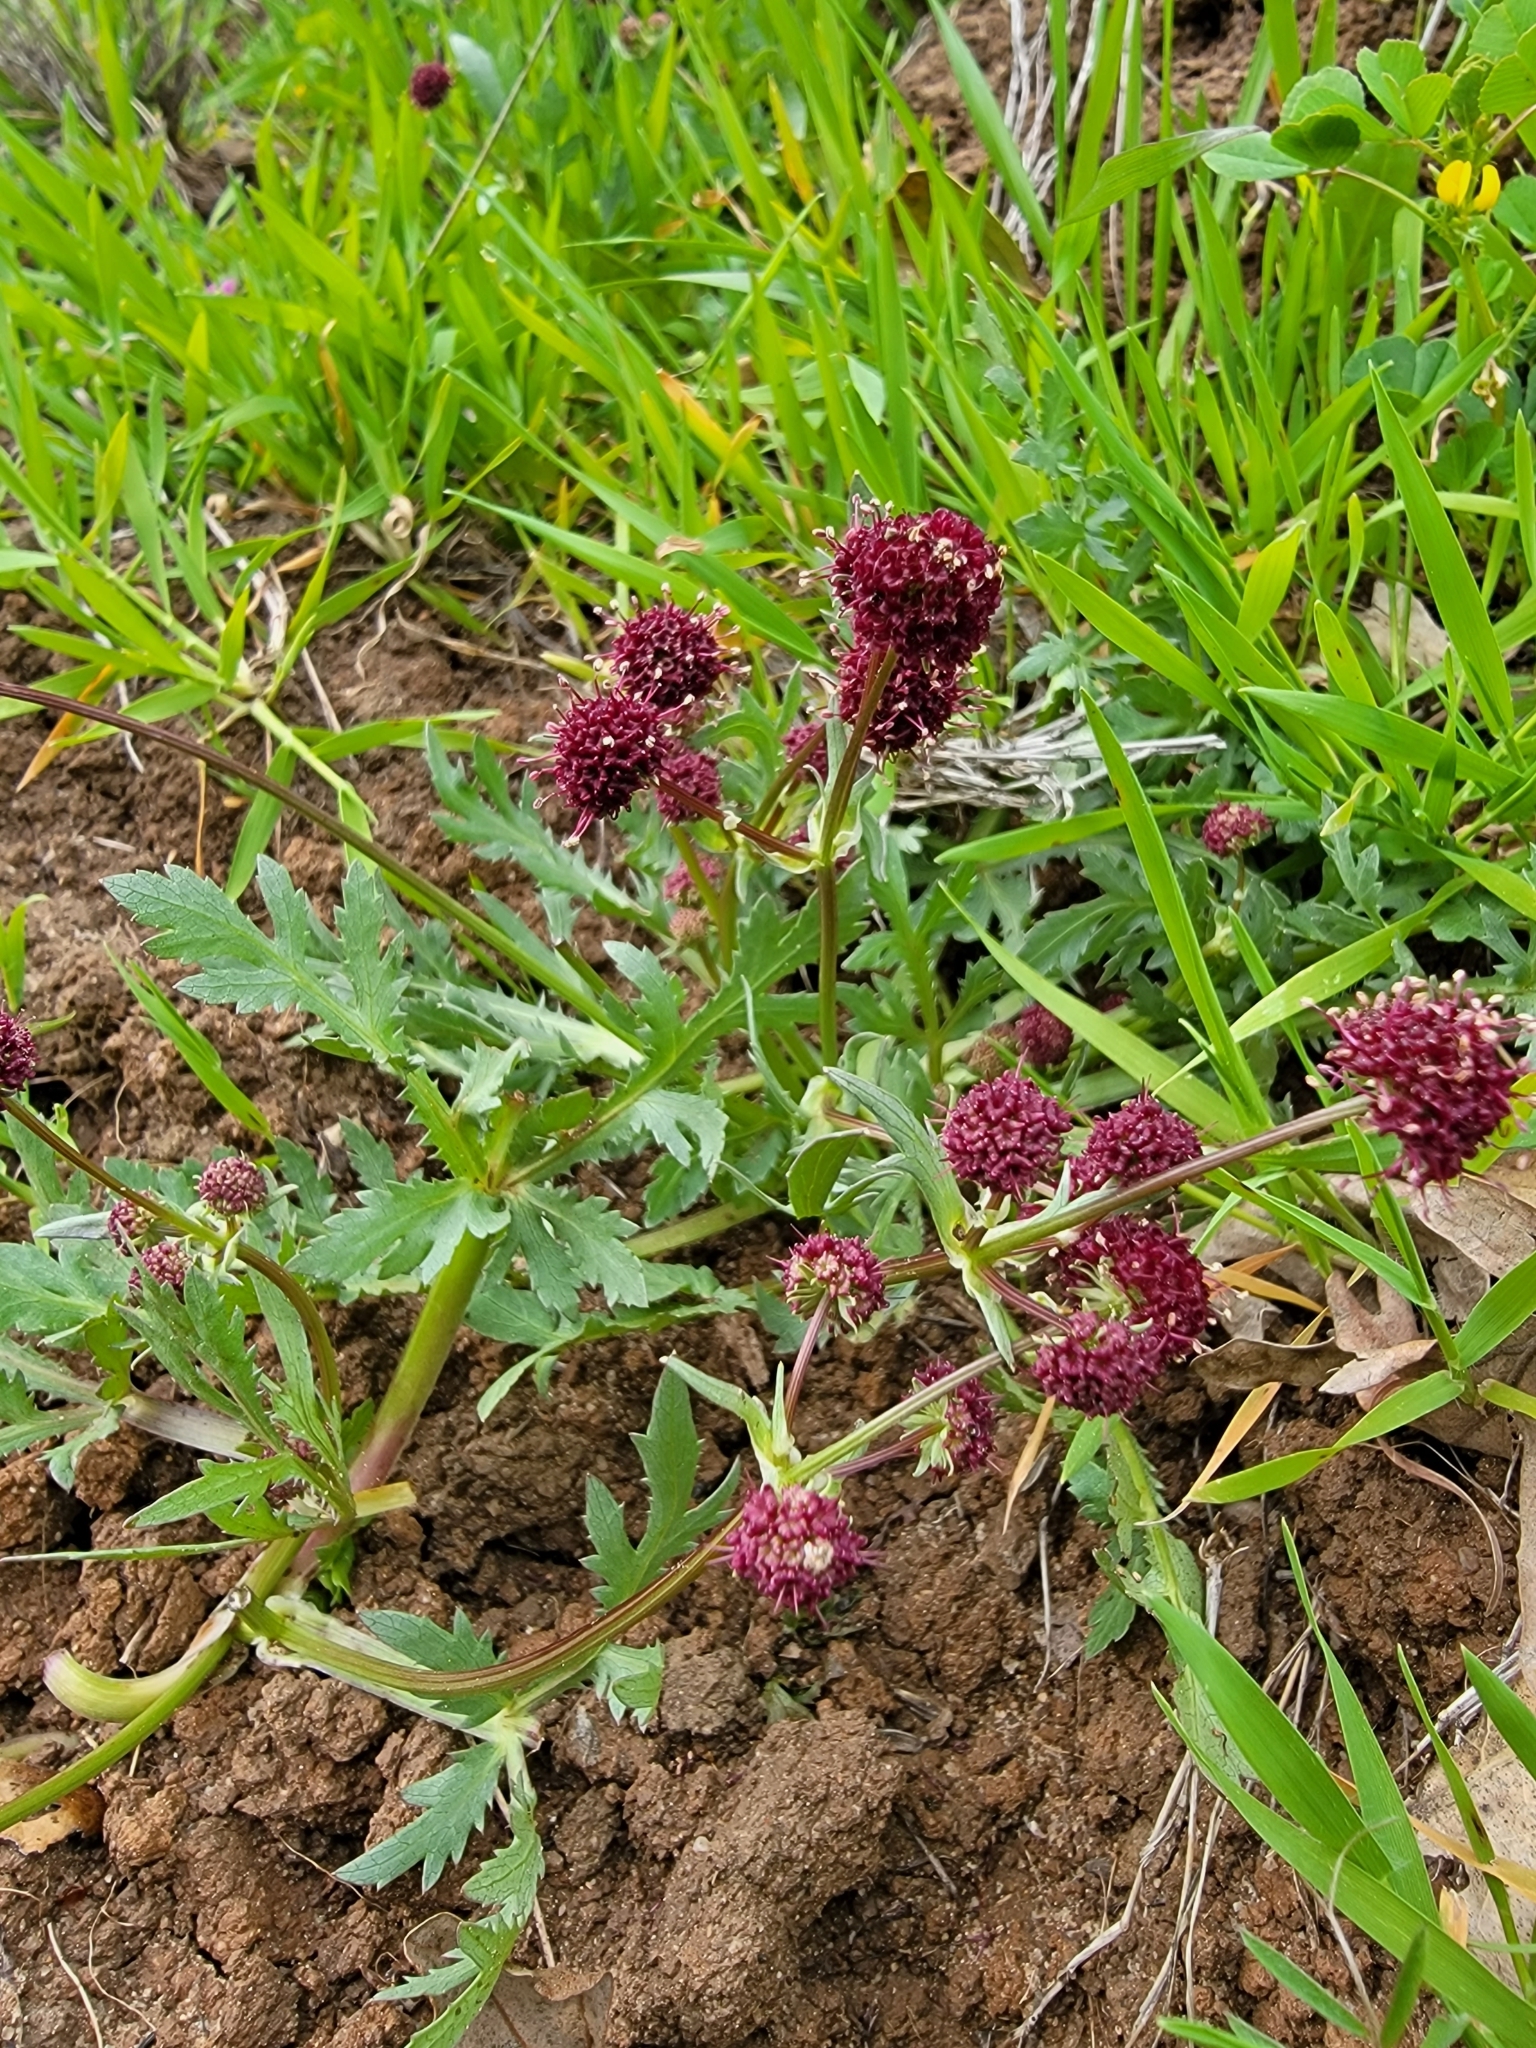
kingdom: Plantae
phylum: Tracheophyta
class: Magnoliopsida
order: Apiales
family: Apiaceae
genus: Sanicula
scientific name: Sanicula bipinnatifida
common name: Shoe-buttons
